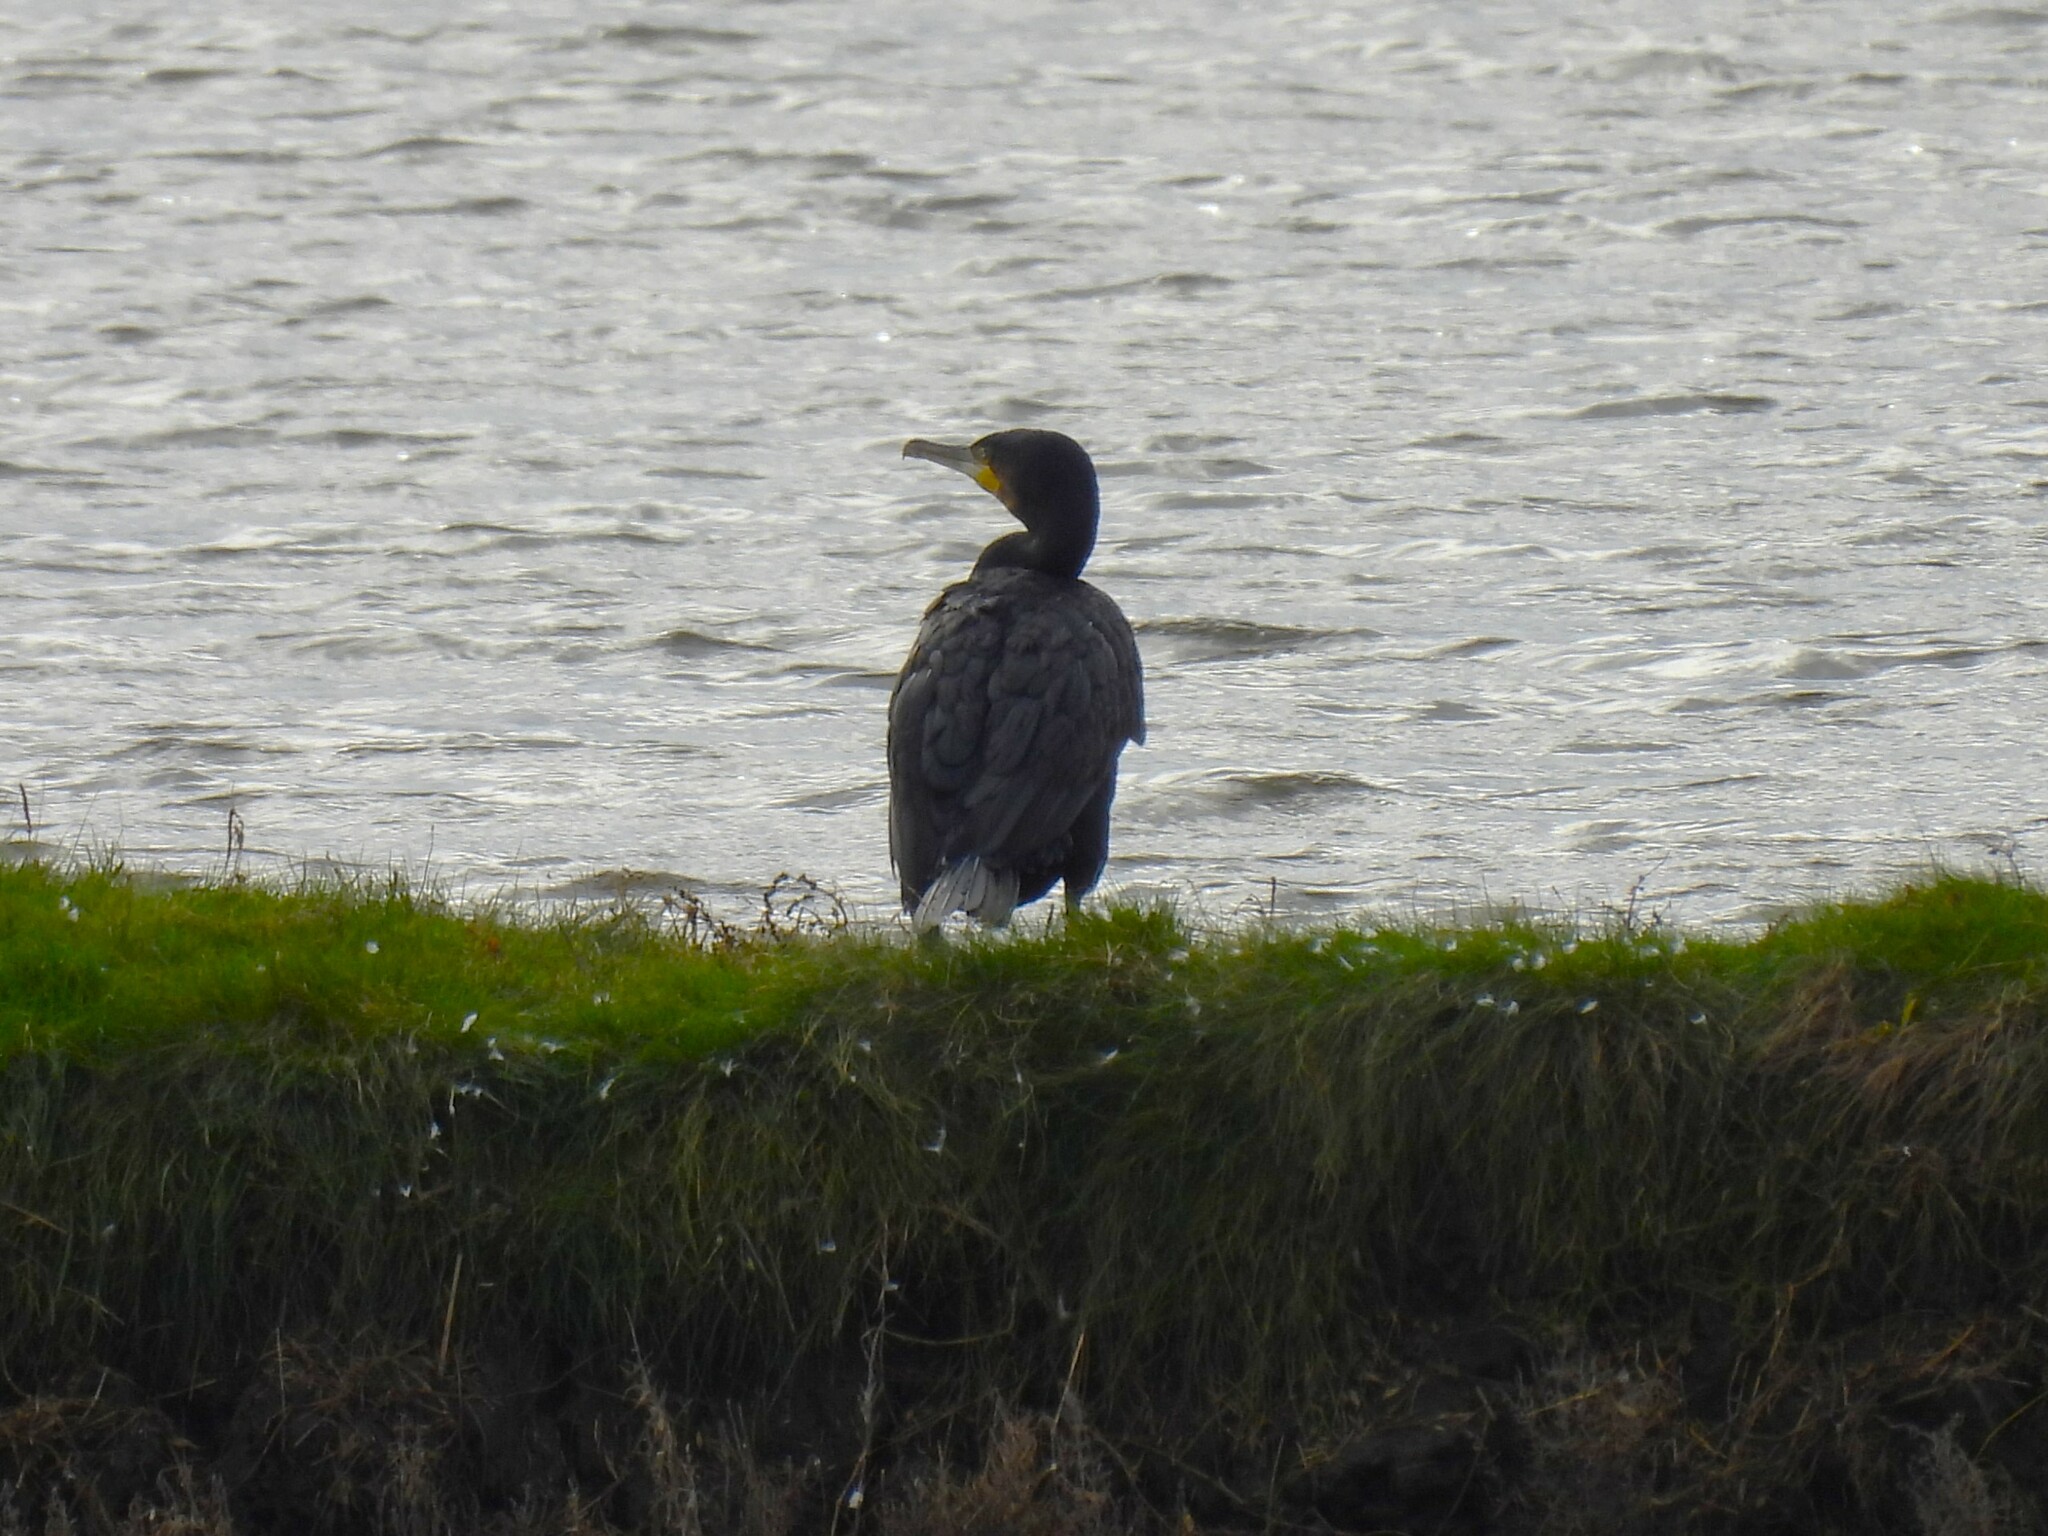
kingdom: Animalia
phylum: Chordata
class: Aves
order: Suliformes
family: Phalacrocoracidae
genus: Phalacrocorax
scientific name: Phalacrocorax carbo
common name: Great cormorant
